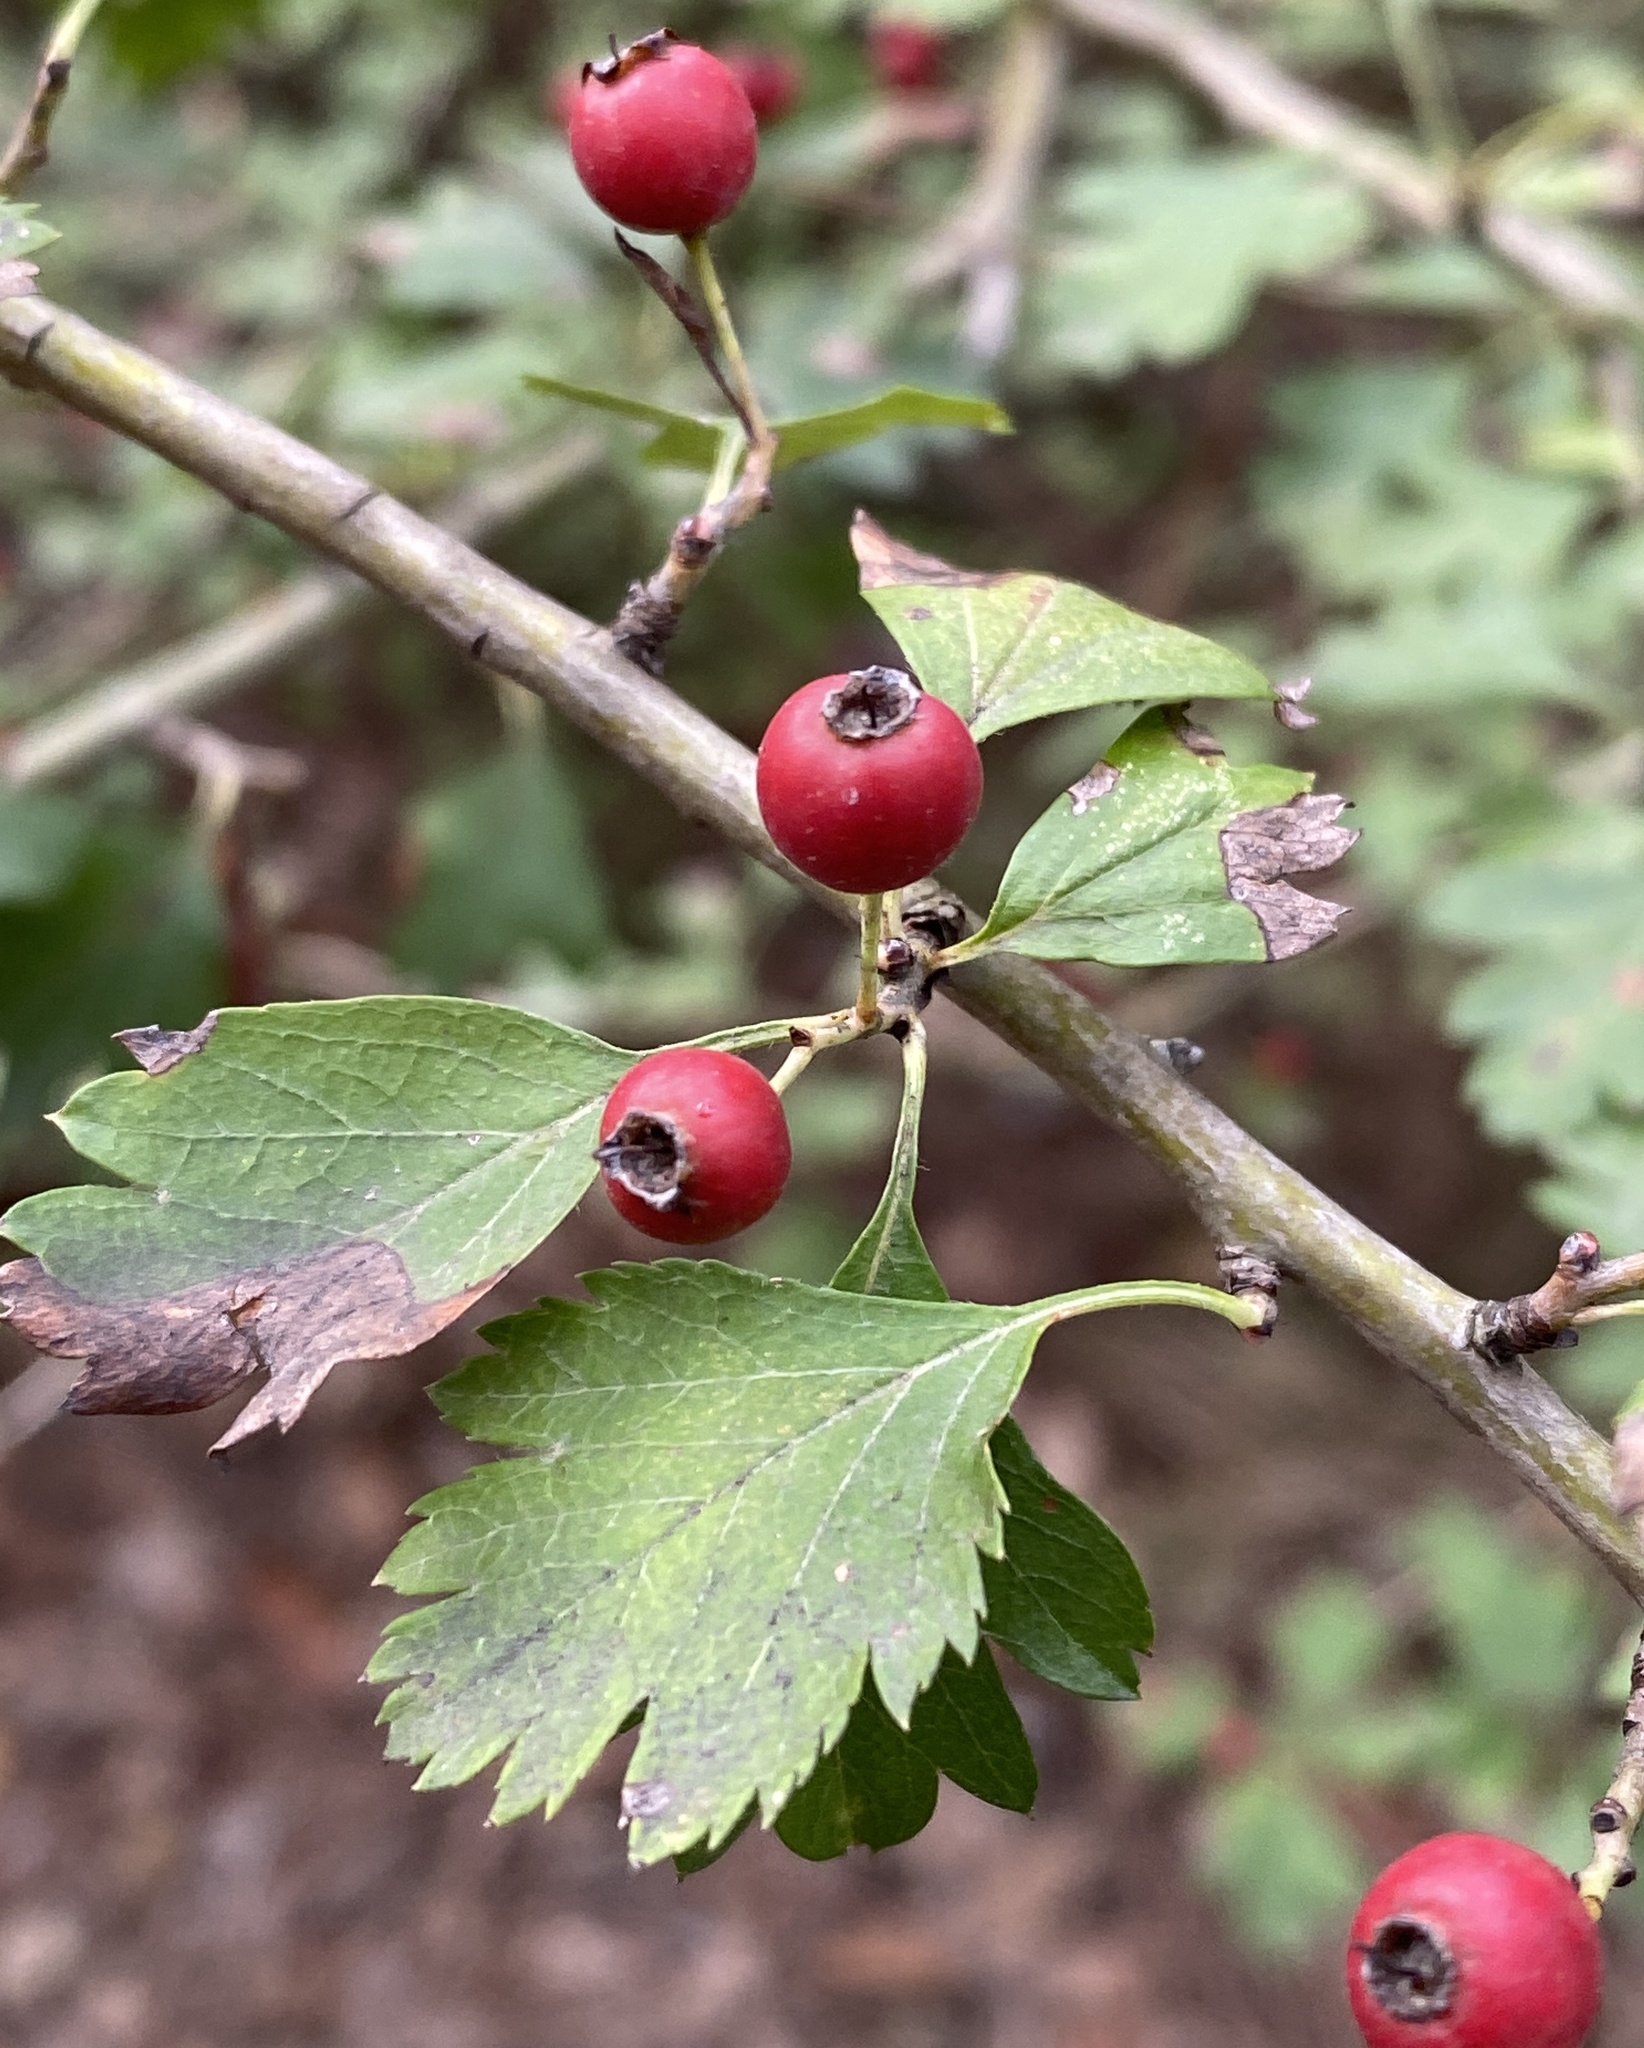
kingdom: Plantae
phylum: Tracheophyta
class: Magnoliopsida
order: Rosales
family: Rosaceae
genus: Crataegus
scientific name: Crataegus monogyna
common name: Hawthorn
